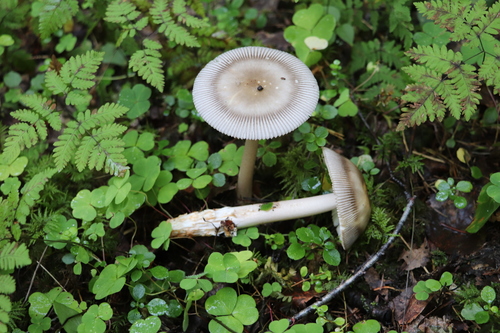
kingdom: Fungi
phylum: Basidiomycota
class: Agaricomycetes
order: Agaricales
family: Amanitaceae
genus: Amanita
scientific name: Amanita battarrae
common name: Banded amanita
